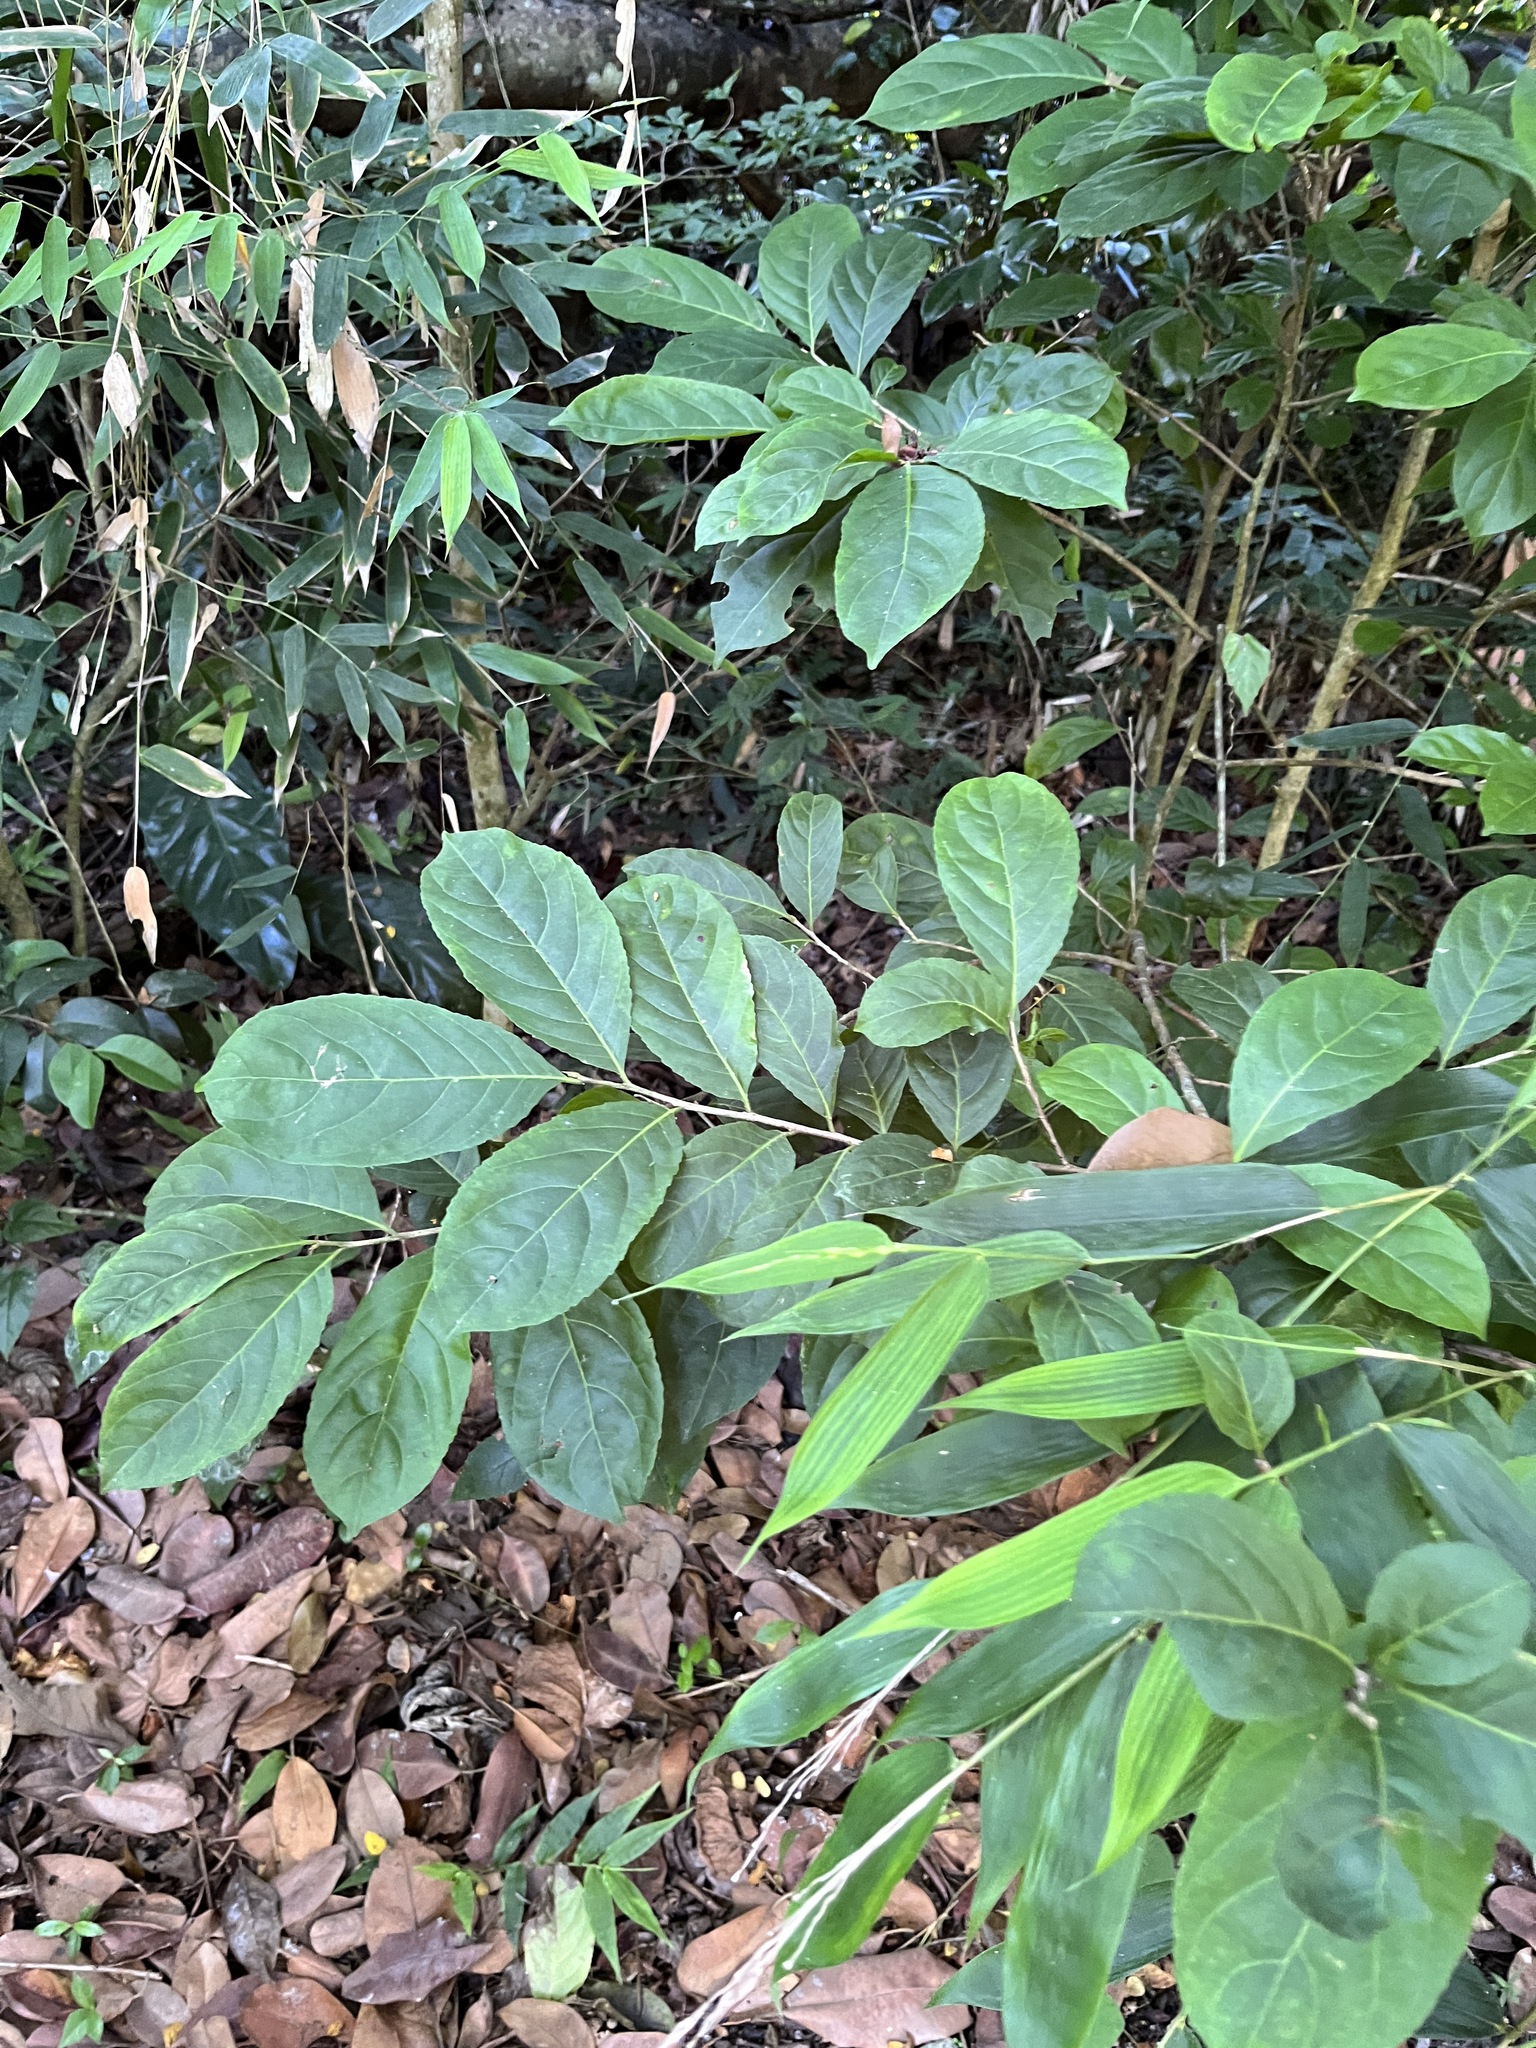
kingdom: Plantae
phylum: Tracheophyta
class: Magnoliopsida
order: Malpighiales
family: Salicaceae
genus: Casearia
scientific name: Casearia guianensis
